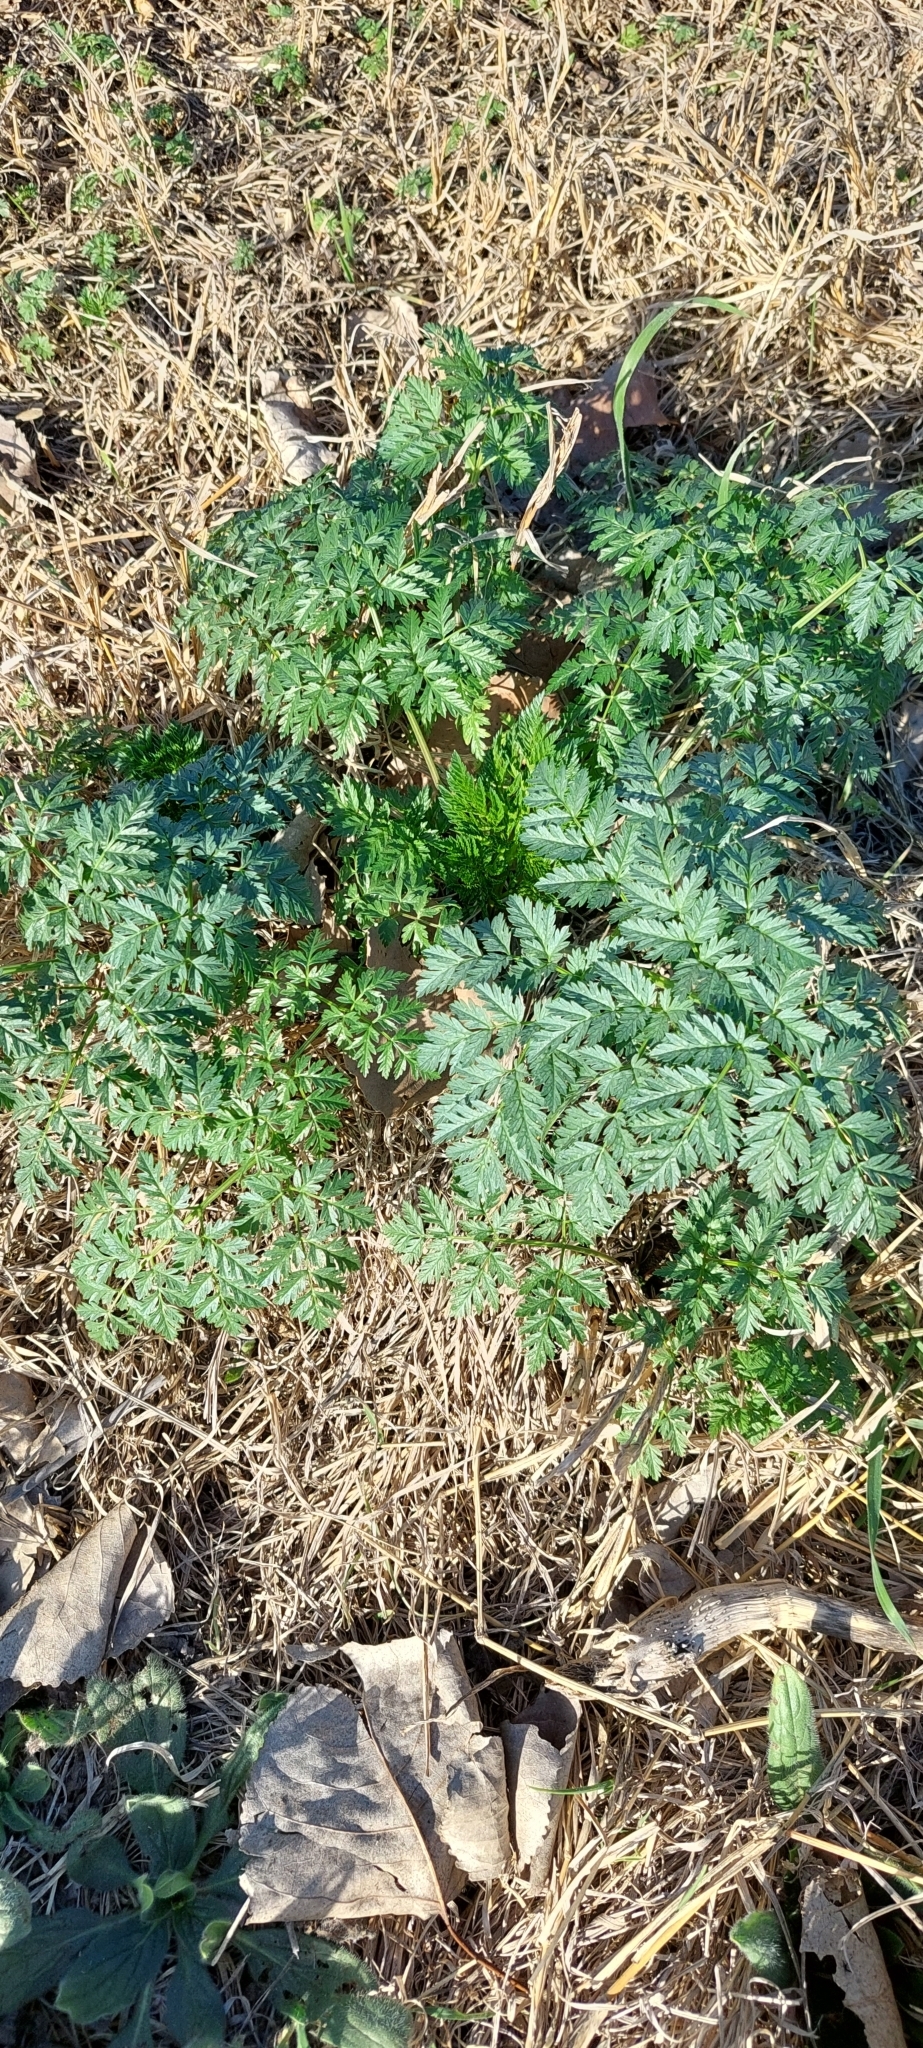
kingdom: Plantae
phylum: Tracheophyta
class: Magnoliopsida
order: Apiales
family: Apiaceae
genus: Conium
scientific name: Conium maculatum
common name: Hemlock
